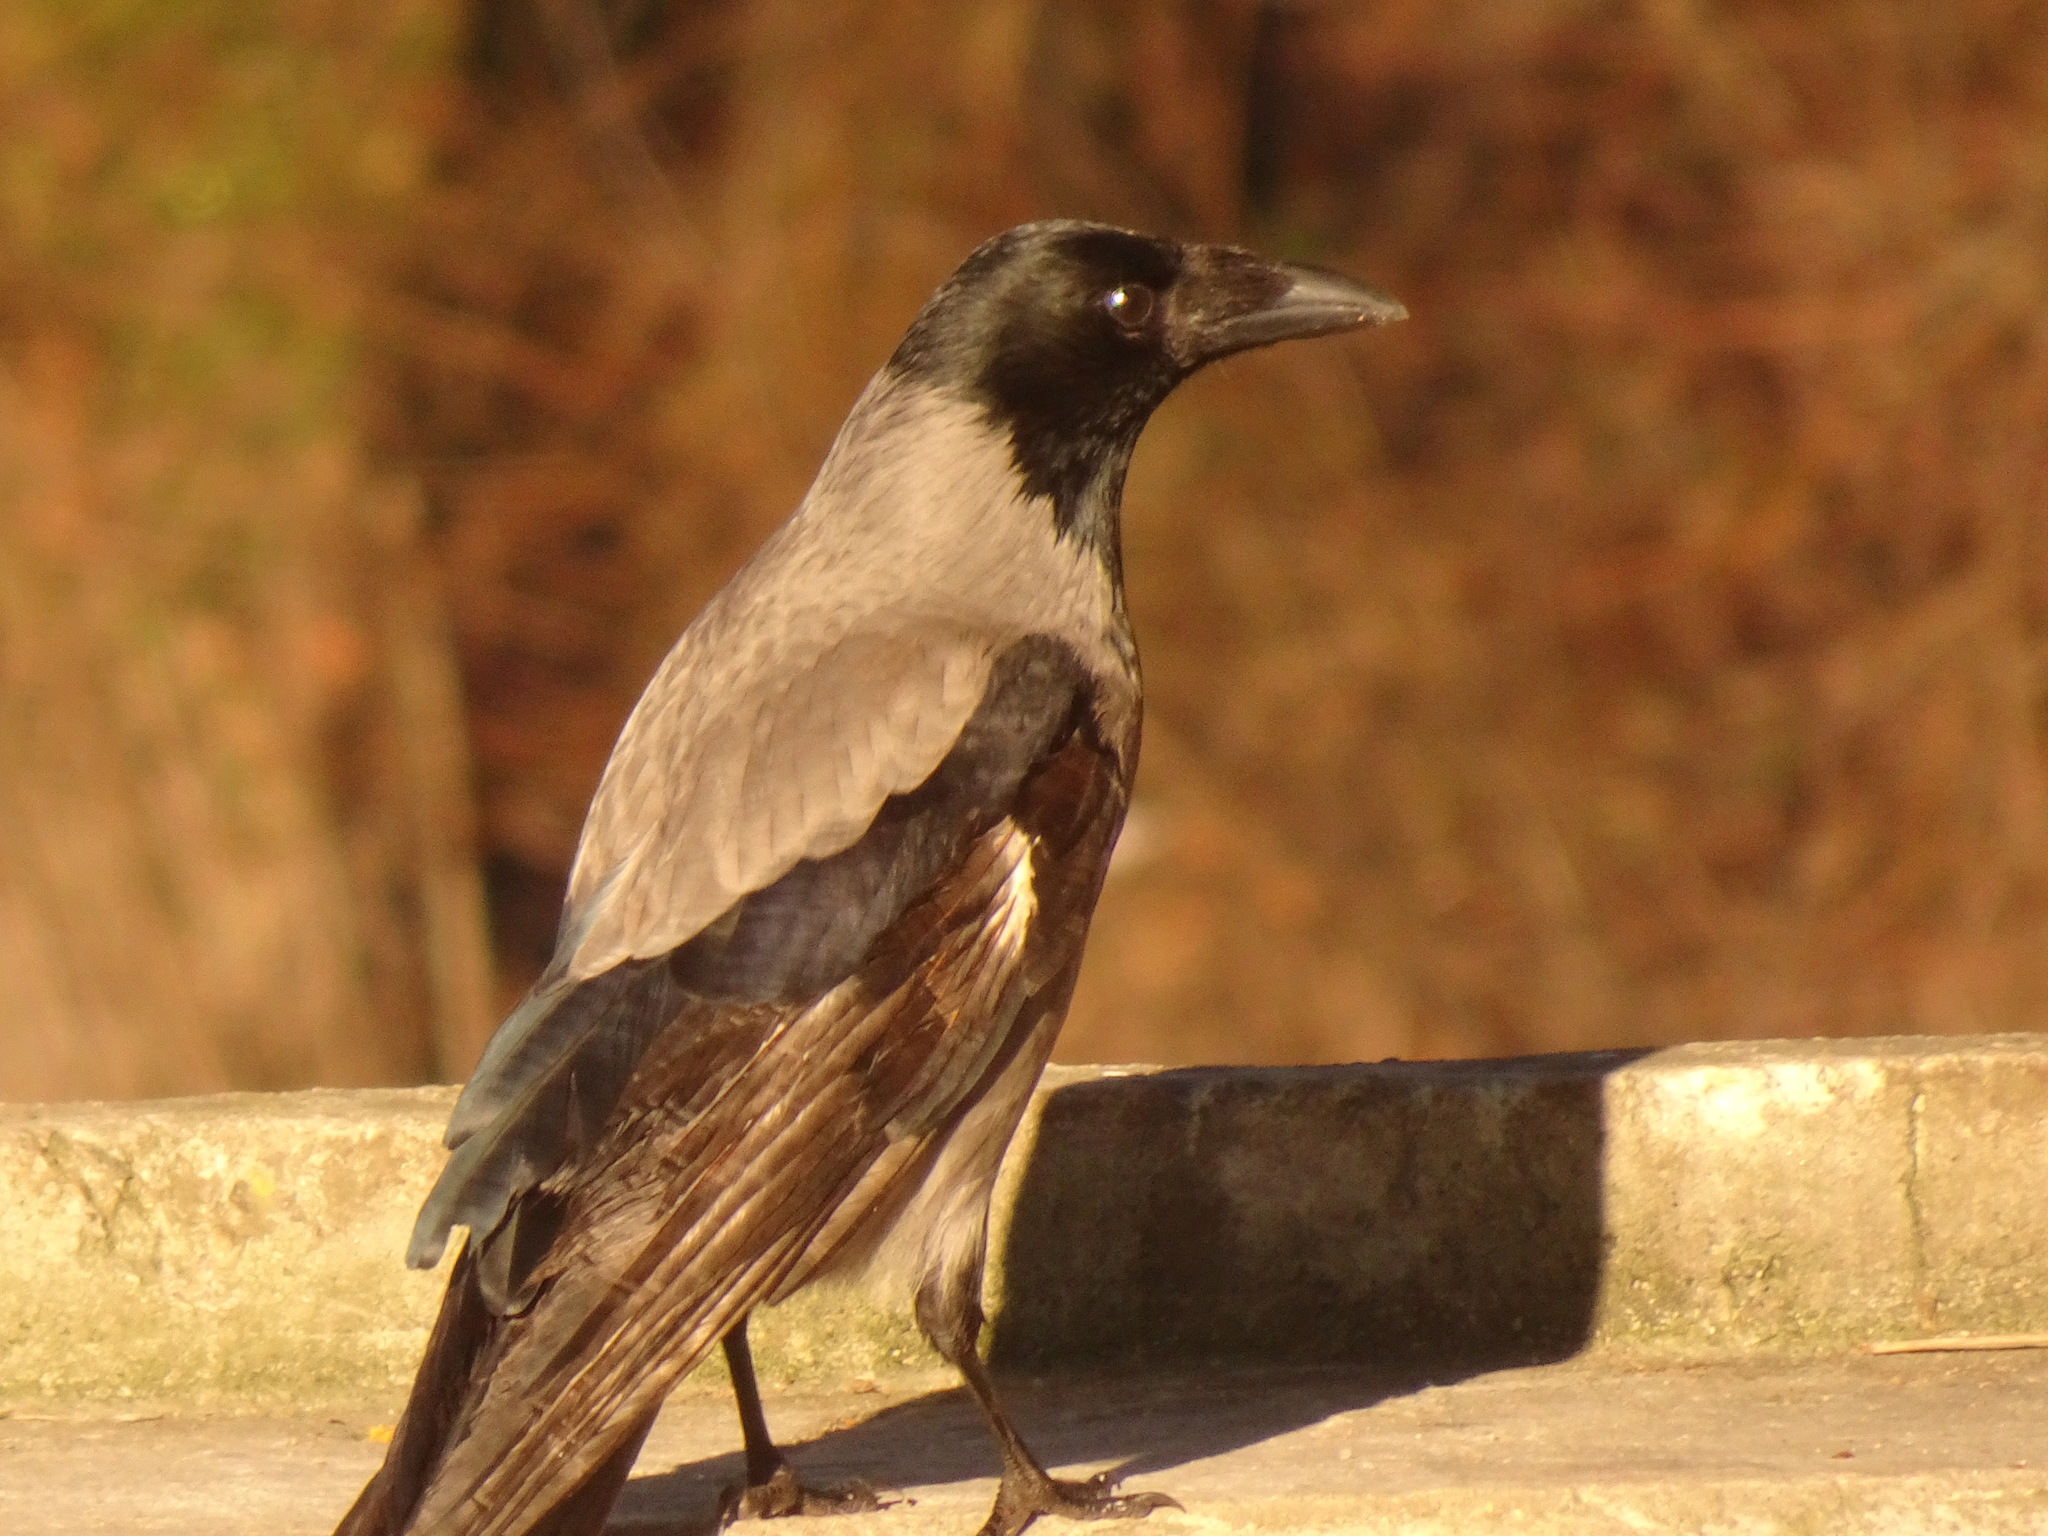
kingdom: Animalia
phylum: Chordata
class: Aves
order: Passeriformes
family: Corvidae
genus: Corvus
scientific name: Corvus cornix
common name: Hooded crow
